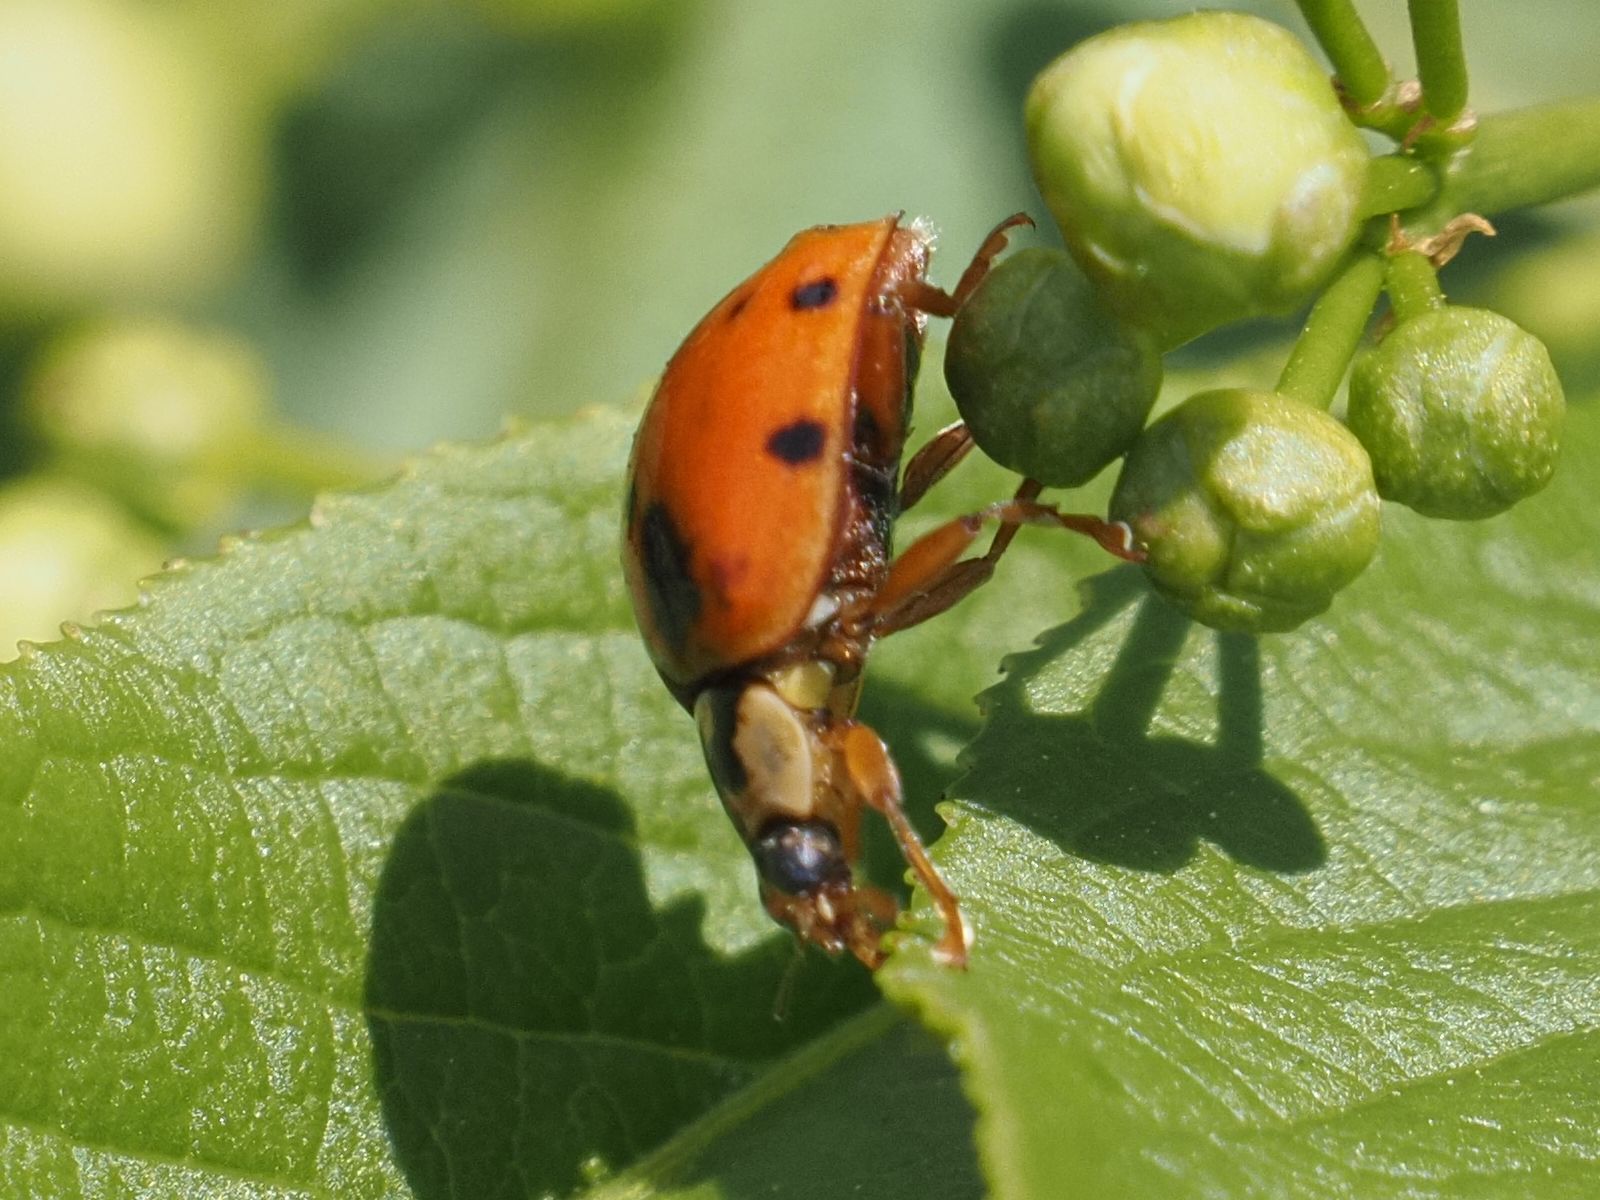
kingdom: Animalia
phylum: Arthropoda
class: Insecta
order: Coleoptera
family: Coccinellidae
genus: Harmonia
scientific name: Harmonia axyridis
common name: Harlequin ladybird
